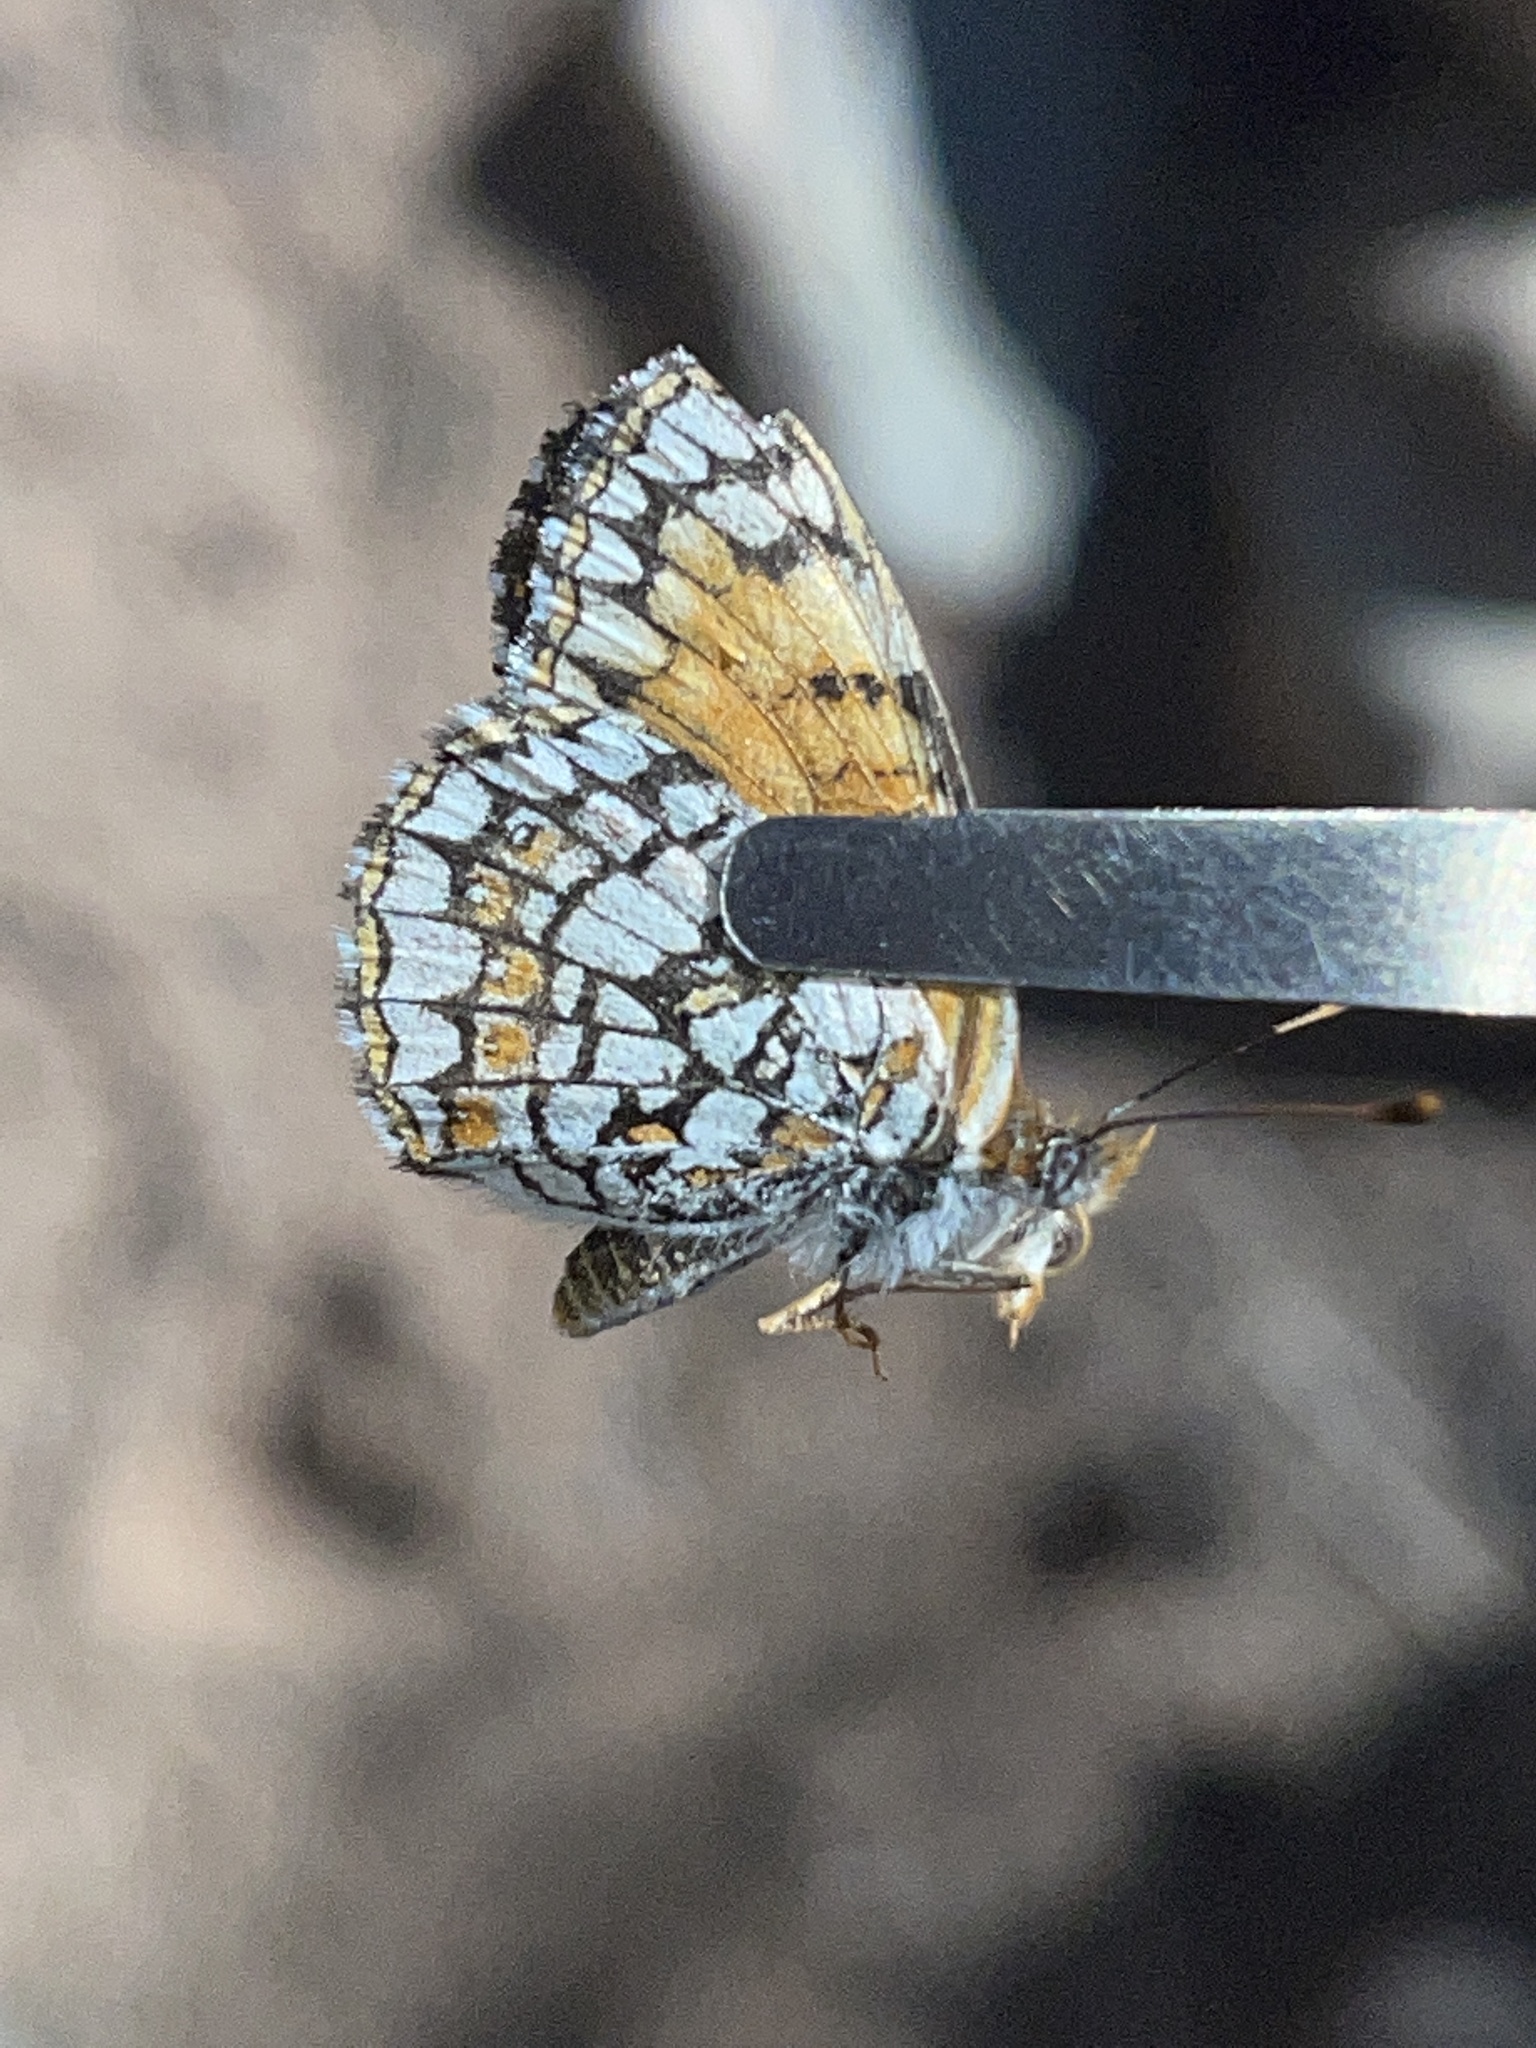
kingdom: Animalia
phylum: Arthropoda
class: Insecta
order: Lepidoptera
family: Nymphalidae
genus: Chlosyne
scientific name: Chlosyne acastus
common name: Sagebrush checkerspot
